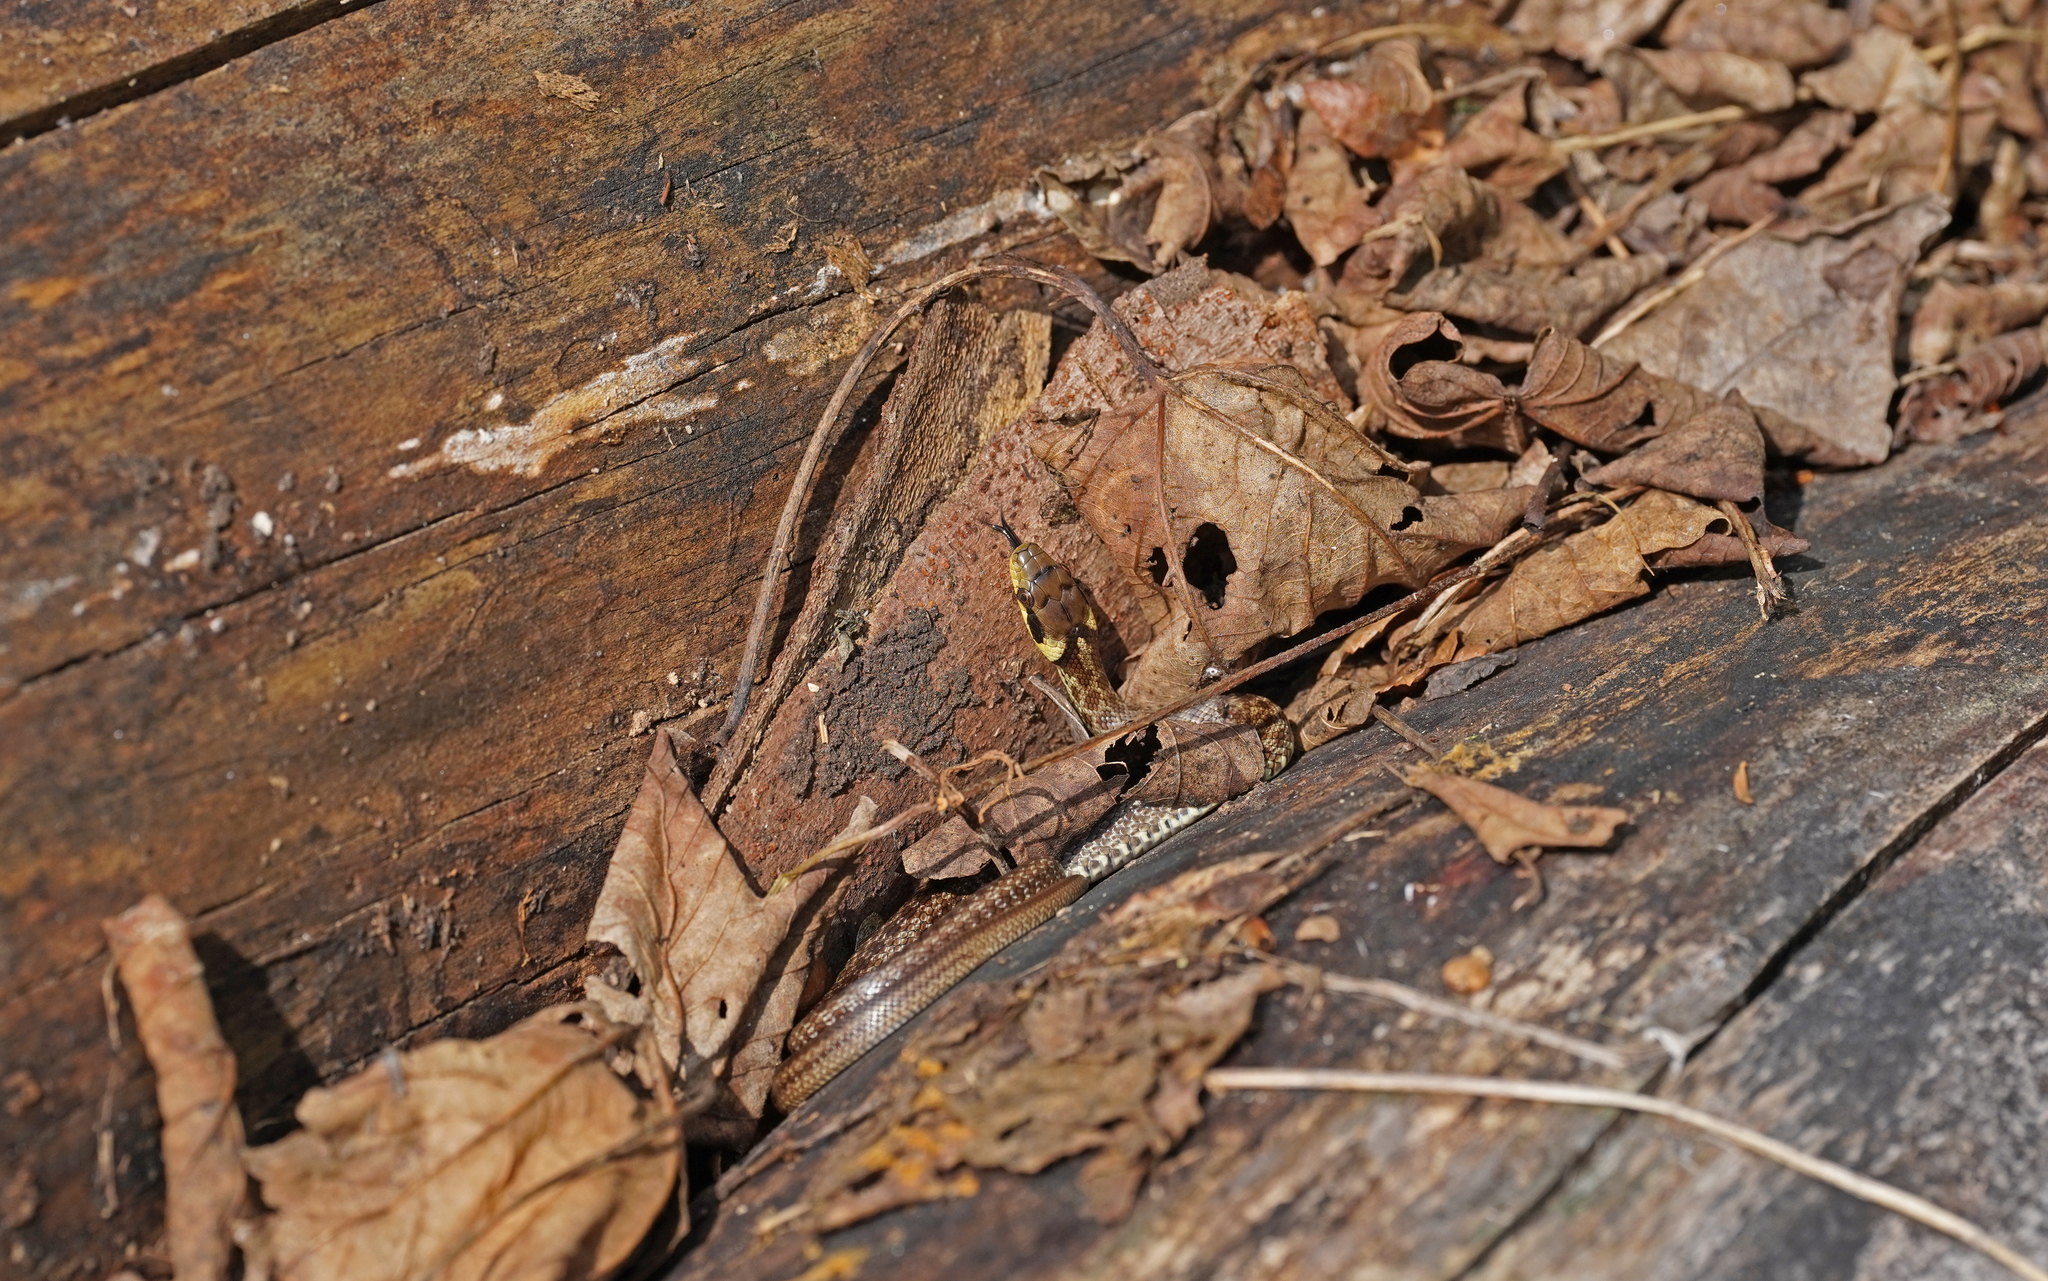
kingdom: Animalia
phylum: Chordata
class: Squamata
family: Colubridae
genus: Zamenis
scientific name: Zamenis longissimus
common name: Aesculapean snake
